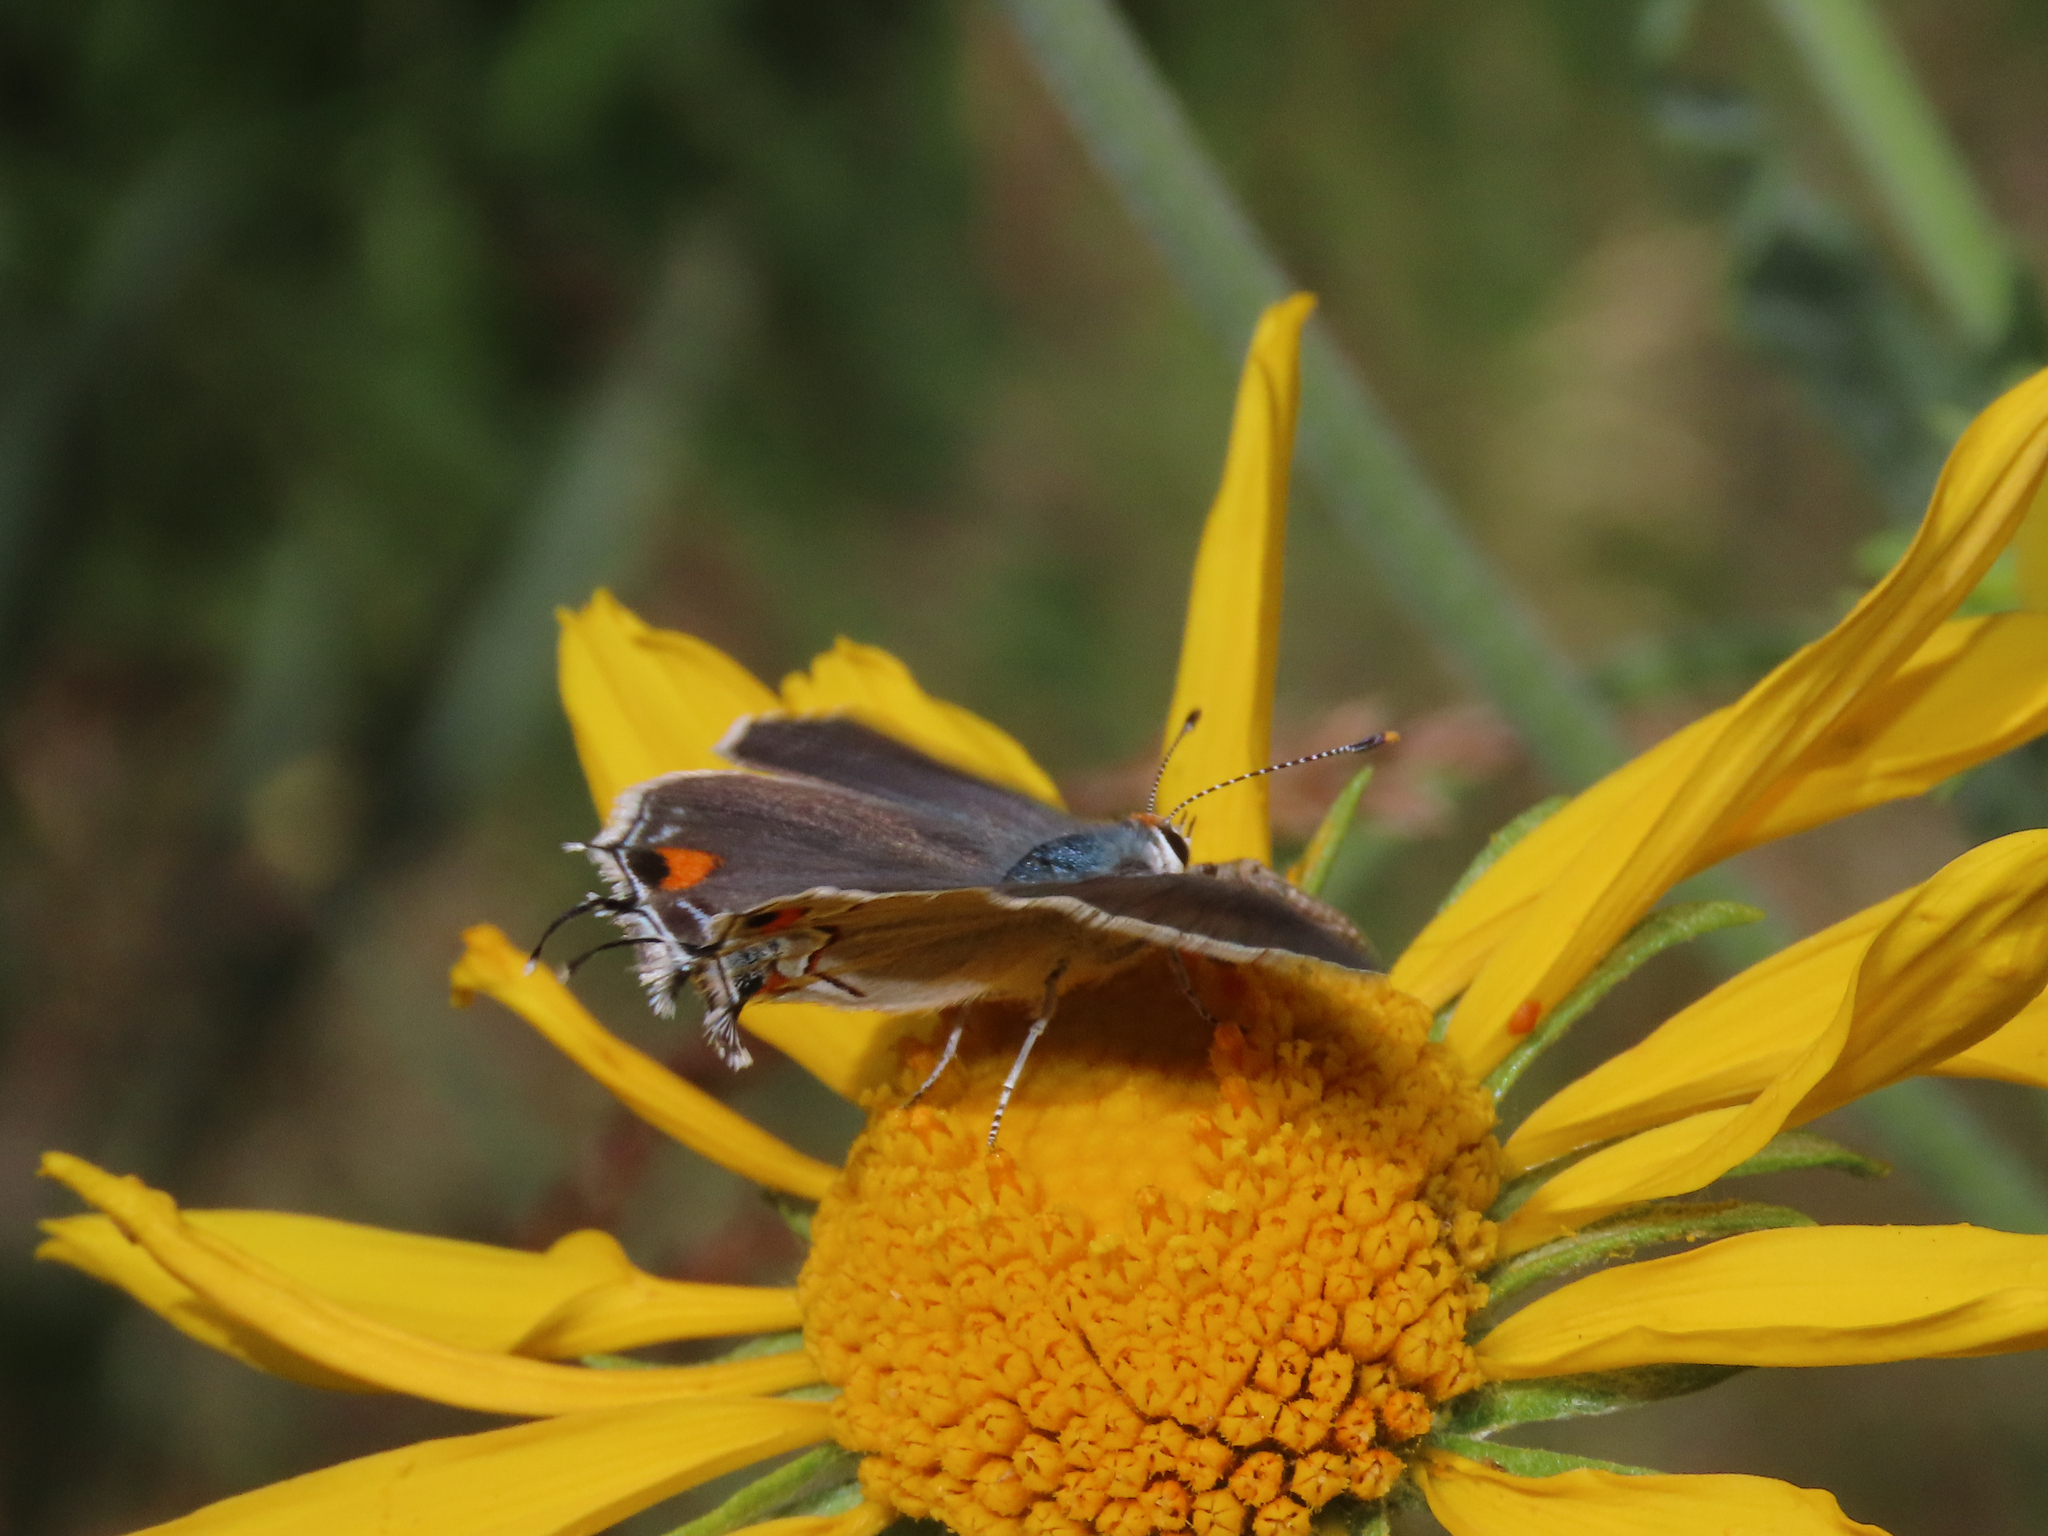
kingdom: Animalia
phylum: Arthropoda
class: Insecta
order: Lepidoptera
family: Lycaenidae
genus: Strymon
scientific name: Strymon melinus
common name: Gray hairstreak
